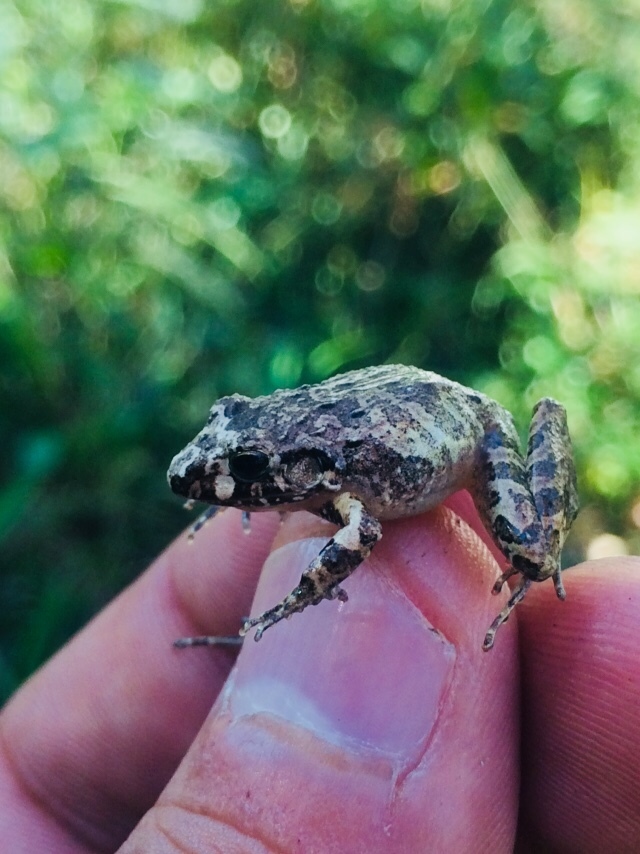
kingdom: Animalia
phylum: Chordata
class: Amphibia
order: Anura
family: Craugastoridae
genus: Craugastor
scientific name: Craugastor pygmaeus
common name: Pygmy free-fingered frog
